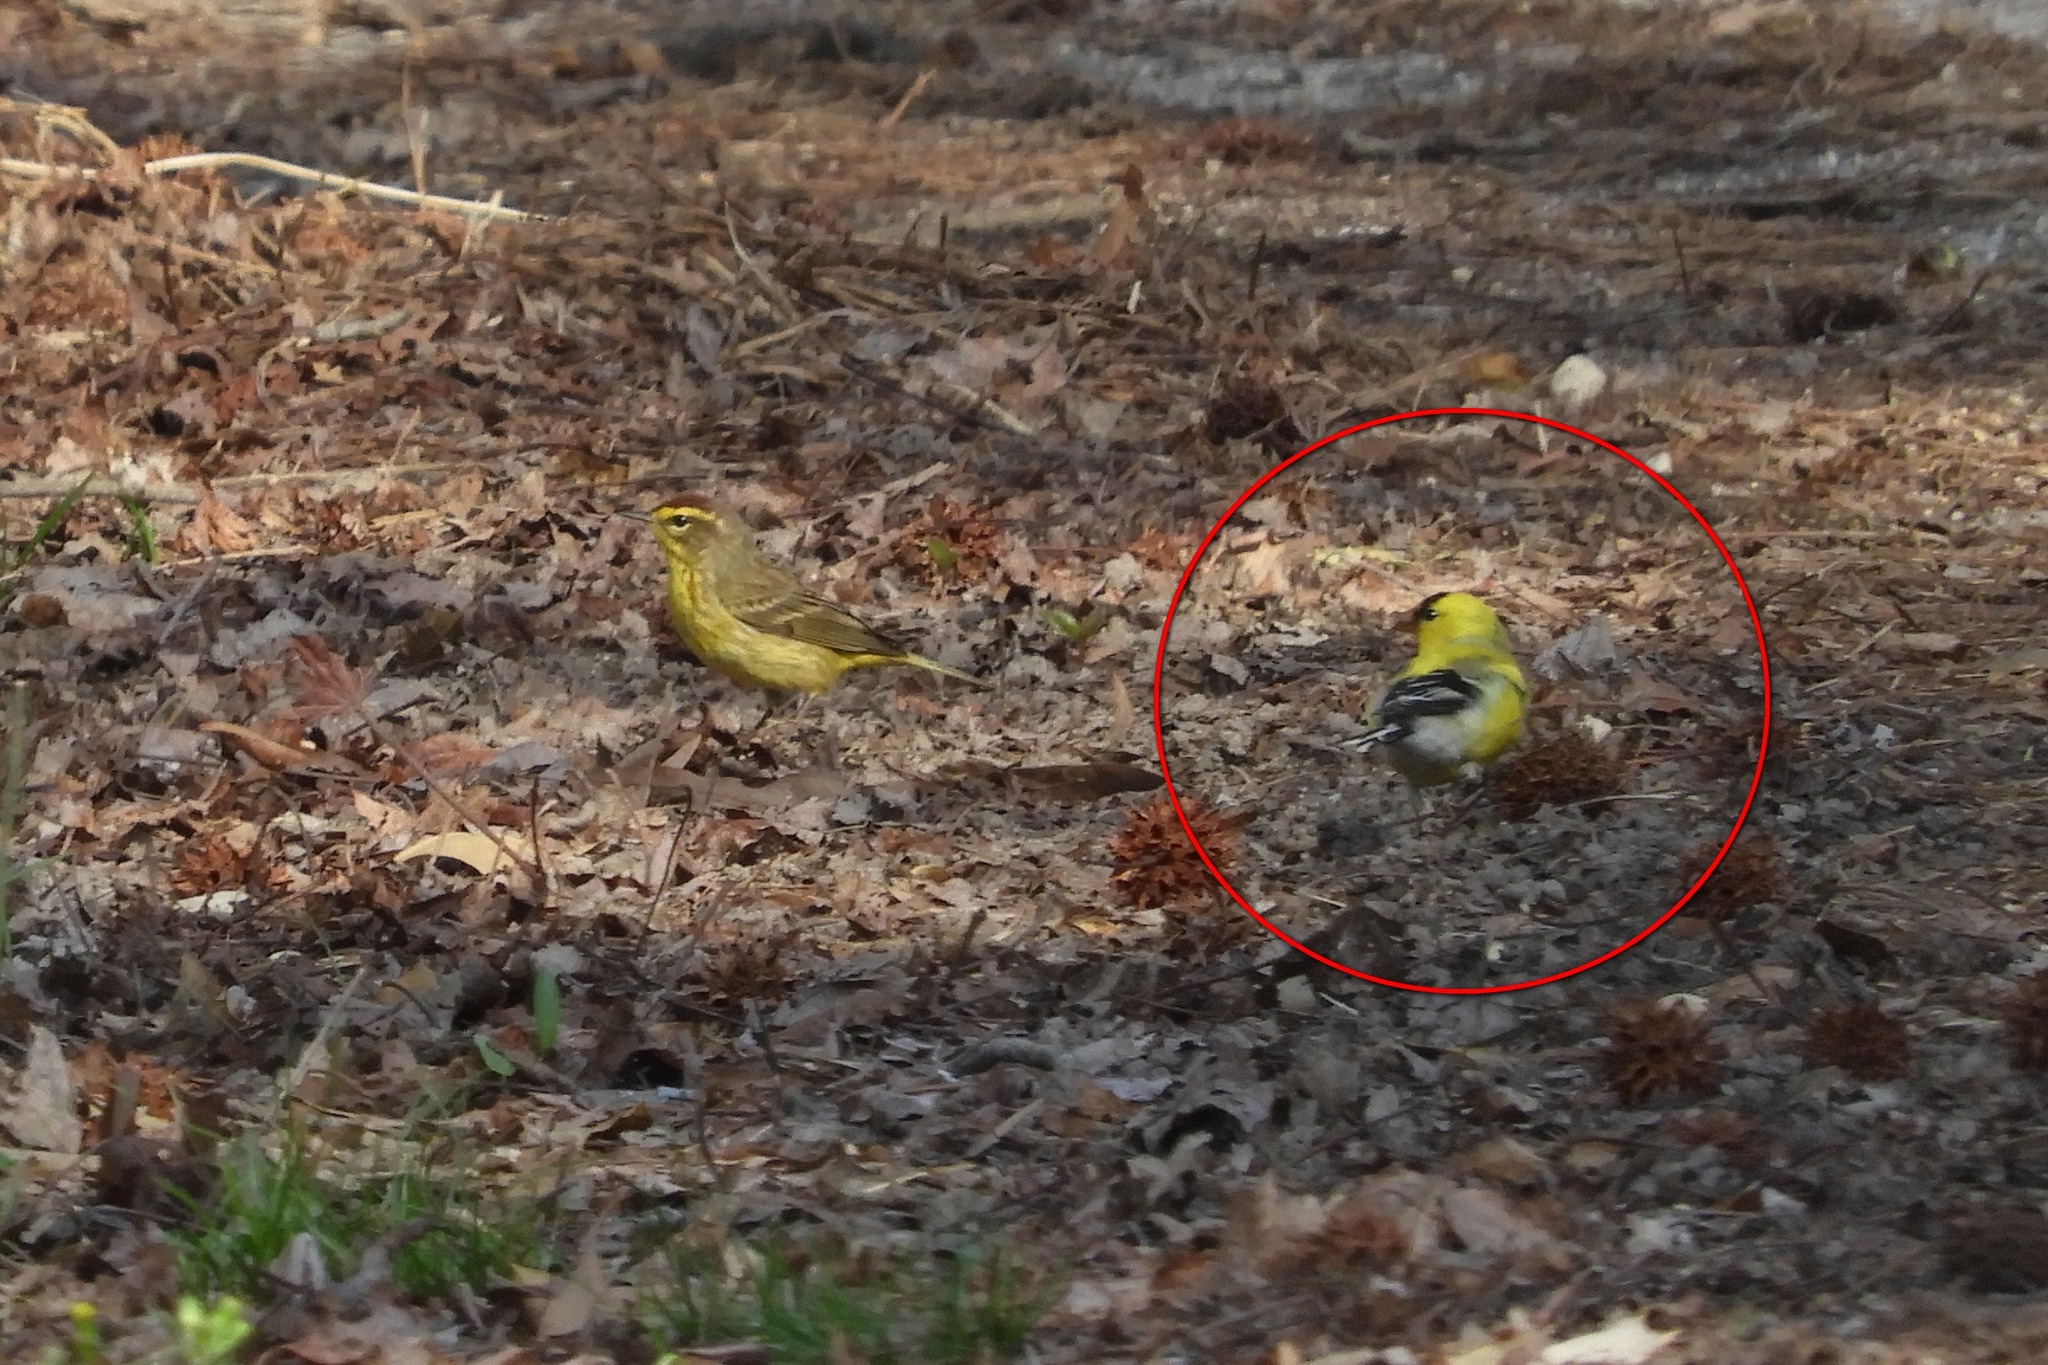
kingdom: Animalia
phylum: Chordata
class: Aves
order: Passeriformes
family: Fringillidae
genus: Spinus
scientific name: Spinus tristis
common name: American goldfinch
